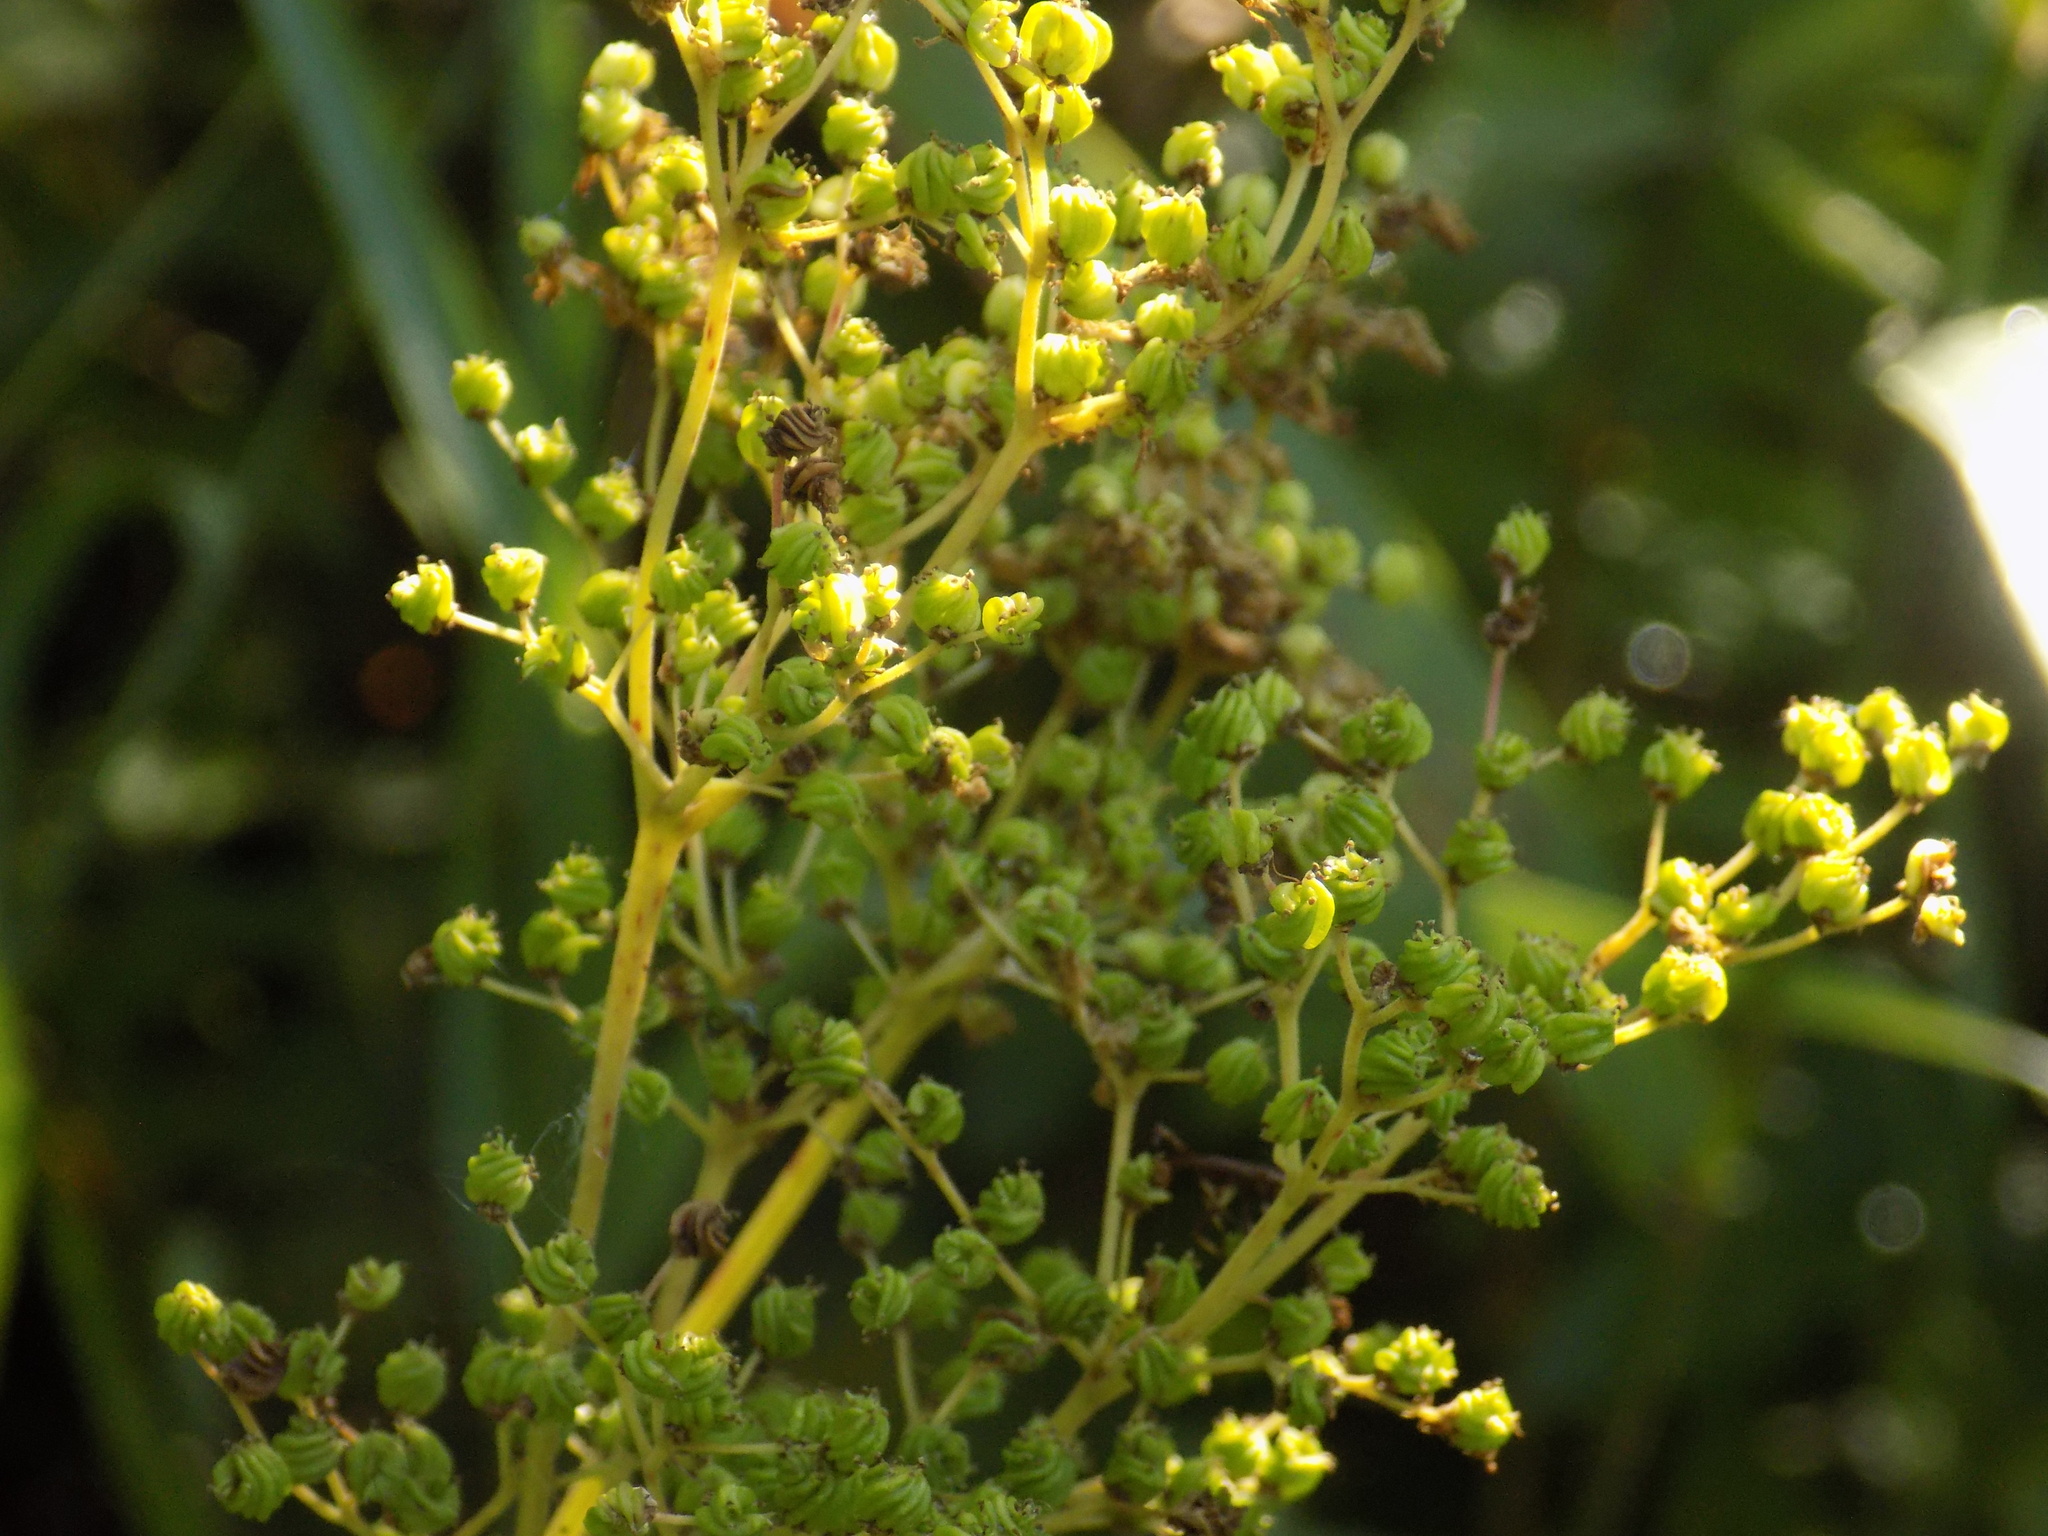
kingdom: Plantae
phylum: Tracheophyta
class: Magnoliopsida
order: Rosales
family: Rosaceae
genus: Filipendula
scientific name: Filipendula ulmaria
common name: Meadowsweet
